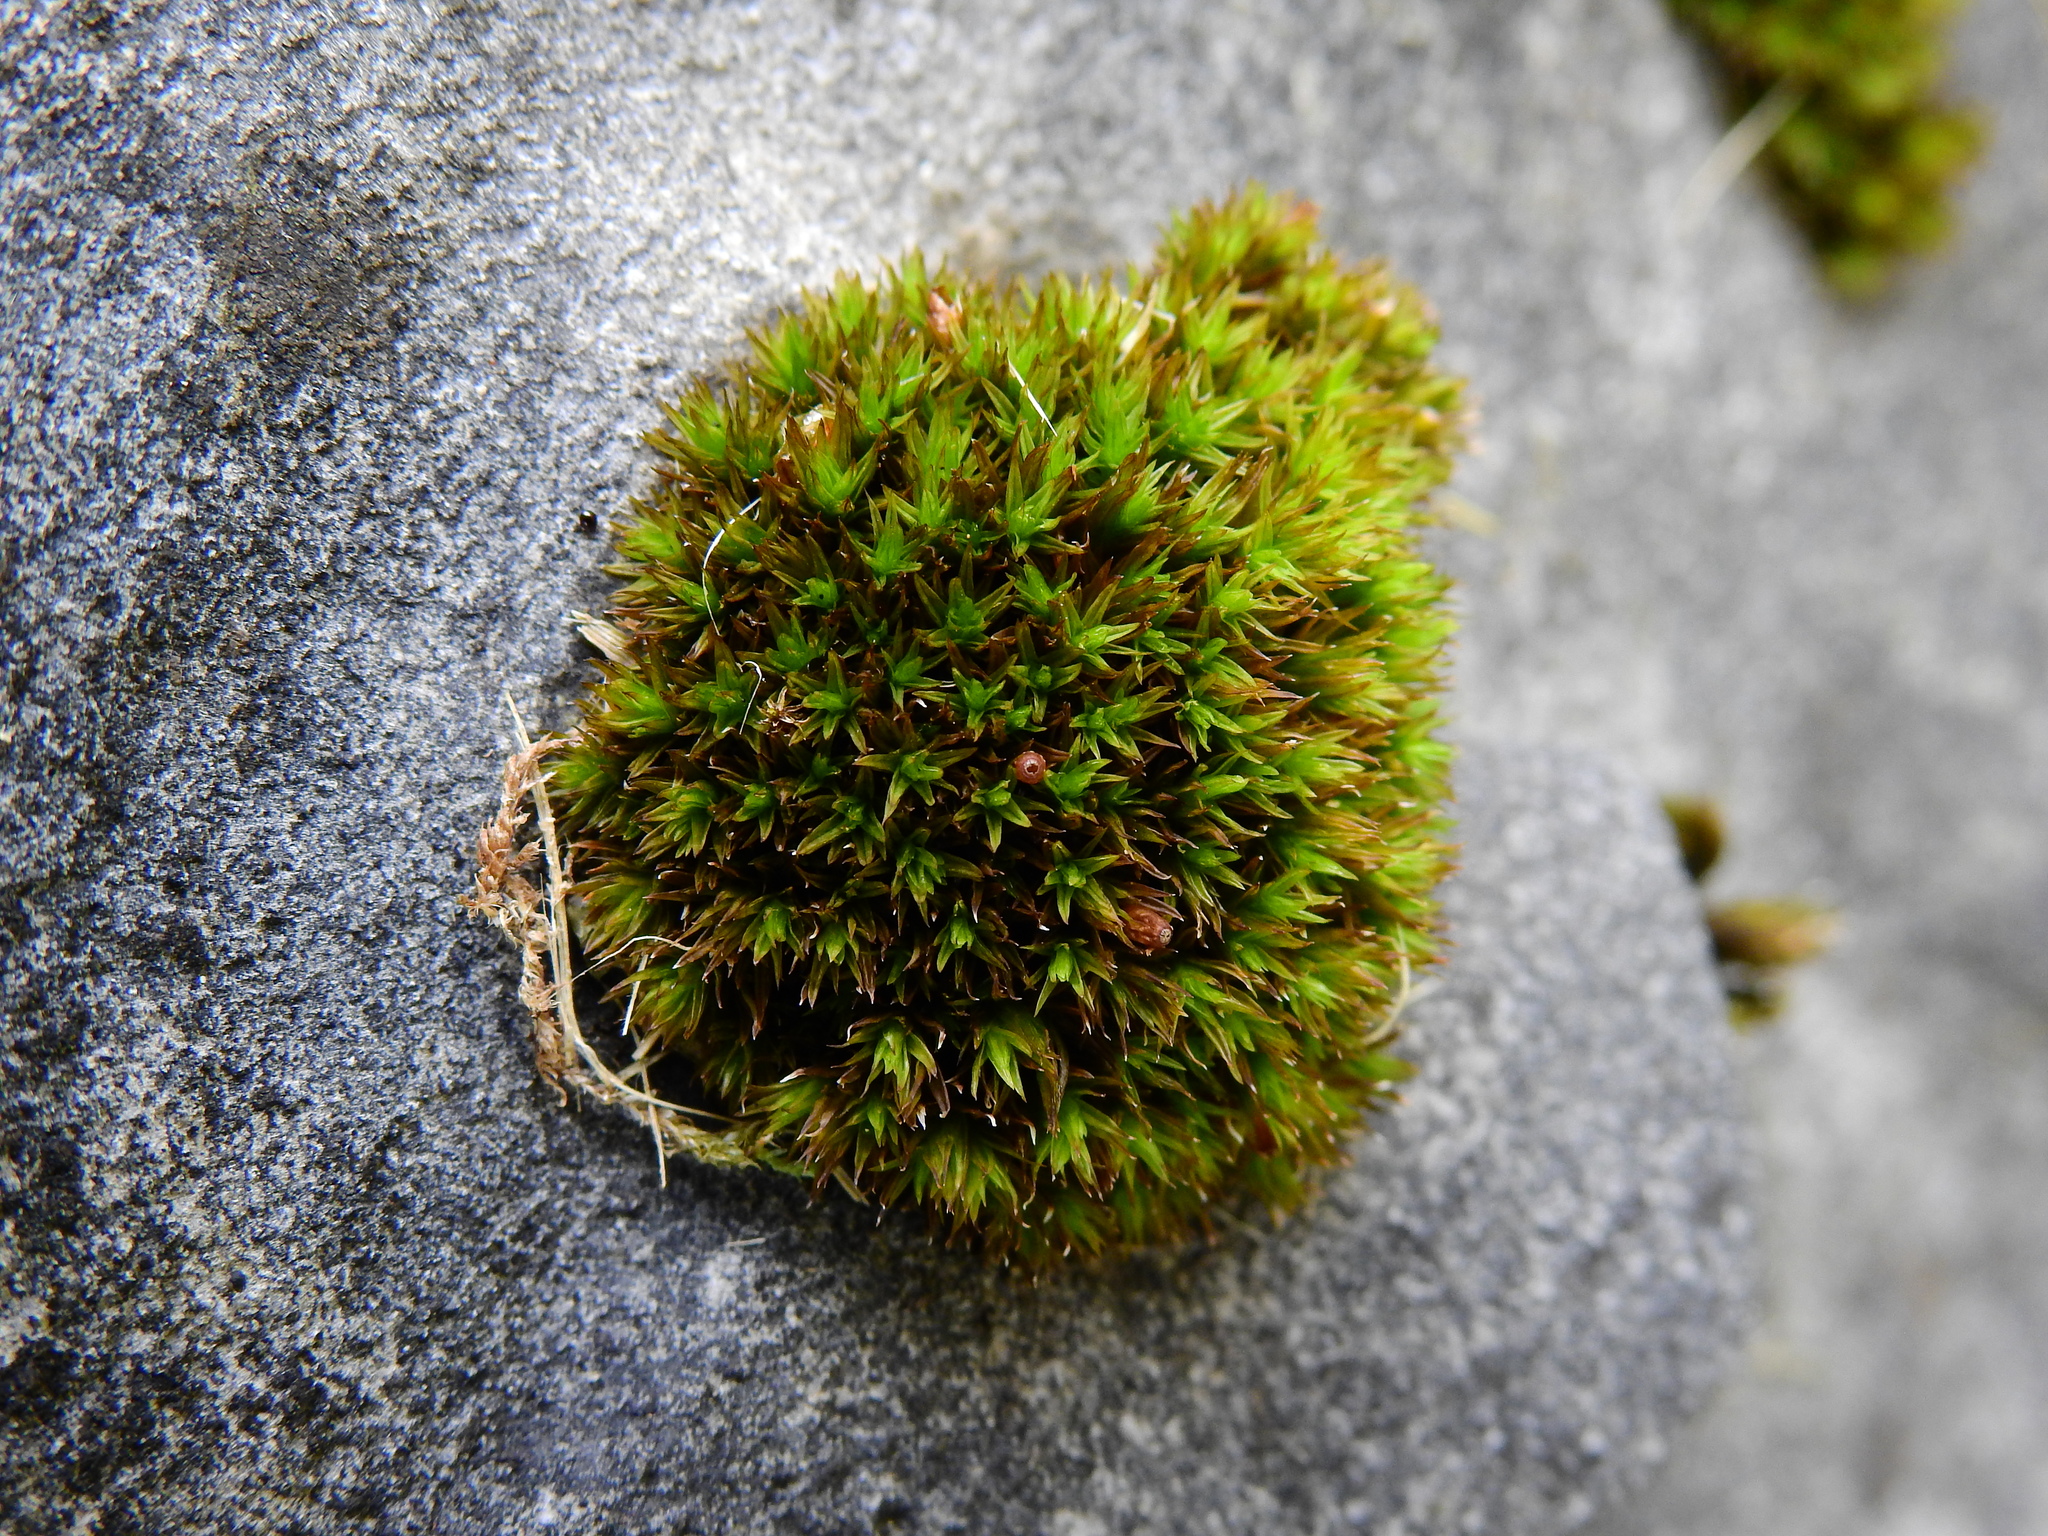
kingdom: Plantae
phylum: Bryophyta
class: Bryopsida
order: Orthotrichales
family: Orthotrichaceae
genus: Orthotrichum
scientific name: Orthotrichum anomalum
